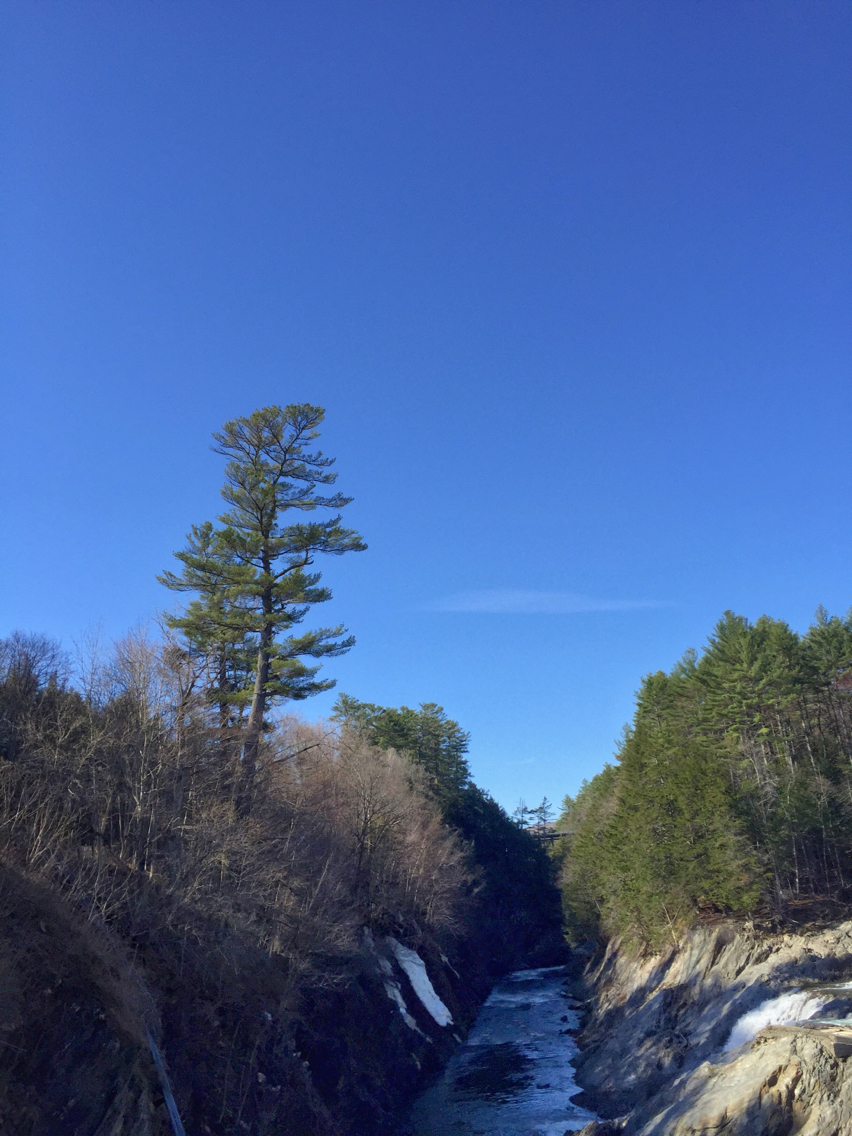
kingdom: Plantae
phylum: Tracheophyta
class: Pinopsida
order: Pinales
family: Pinaceae
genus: Pinus
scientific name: Pinus strobus
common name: Weymouth pine
